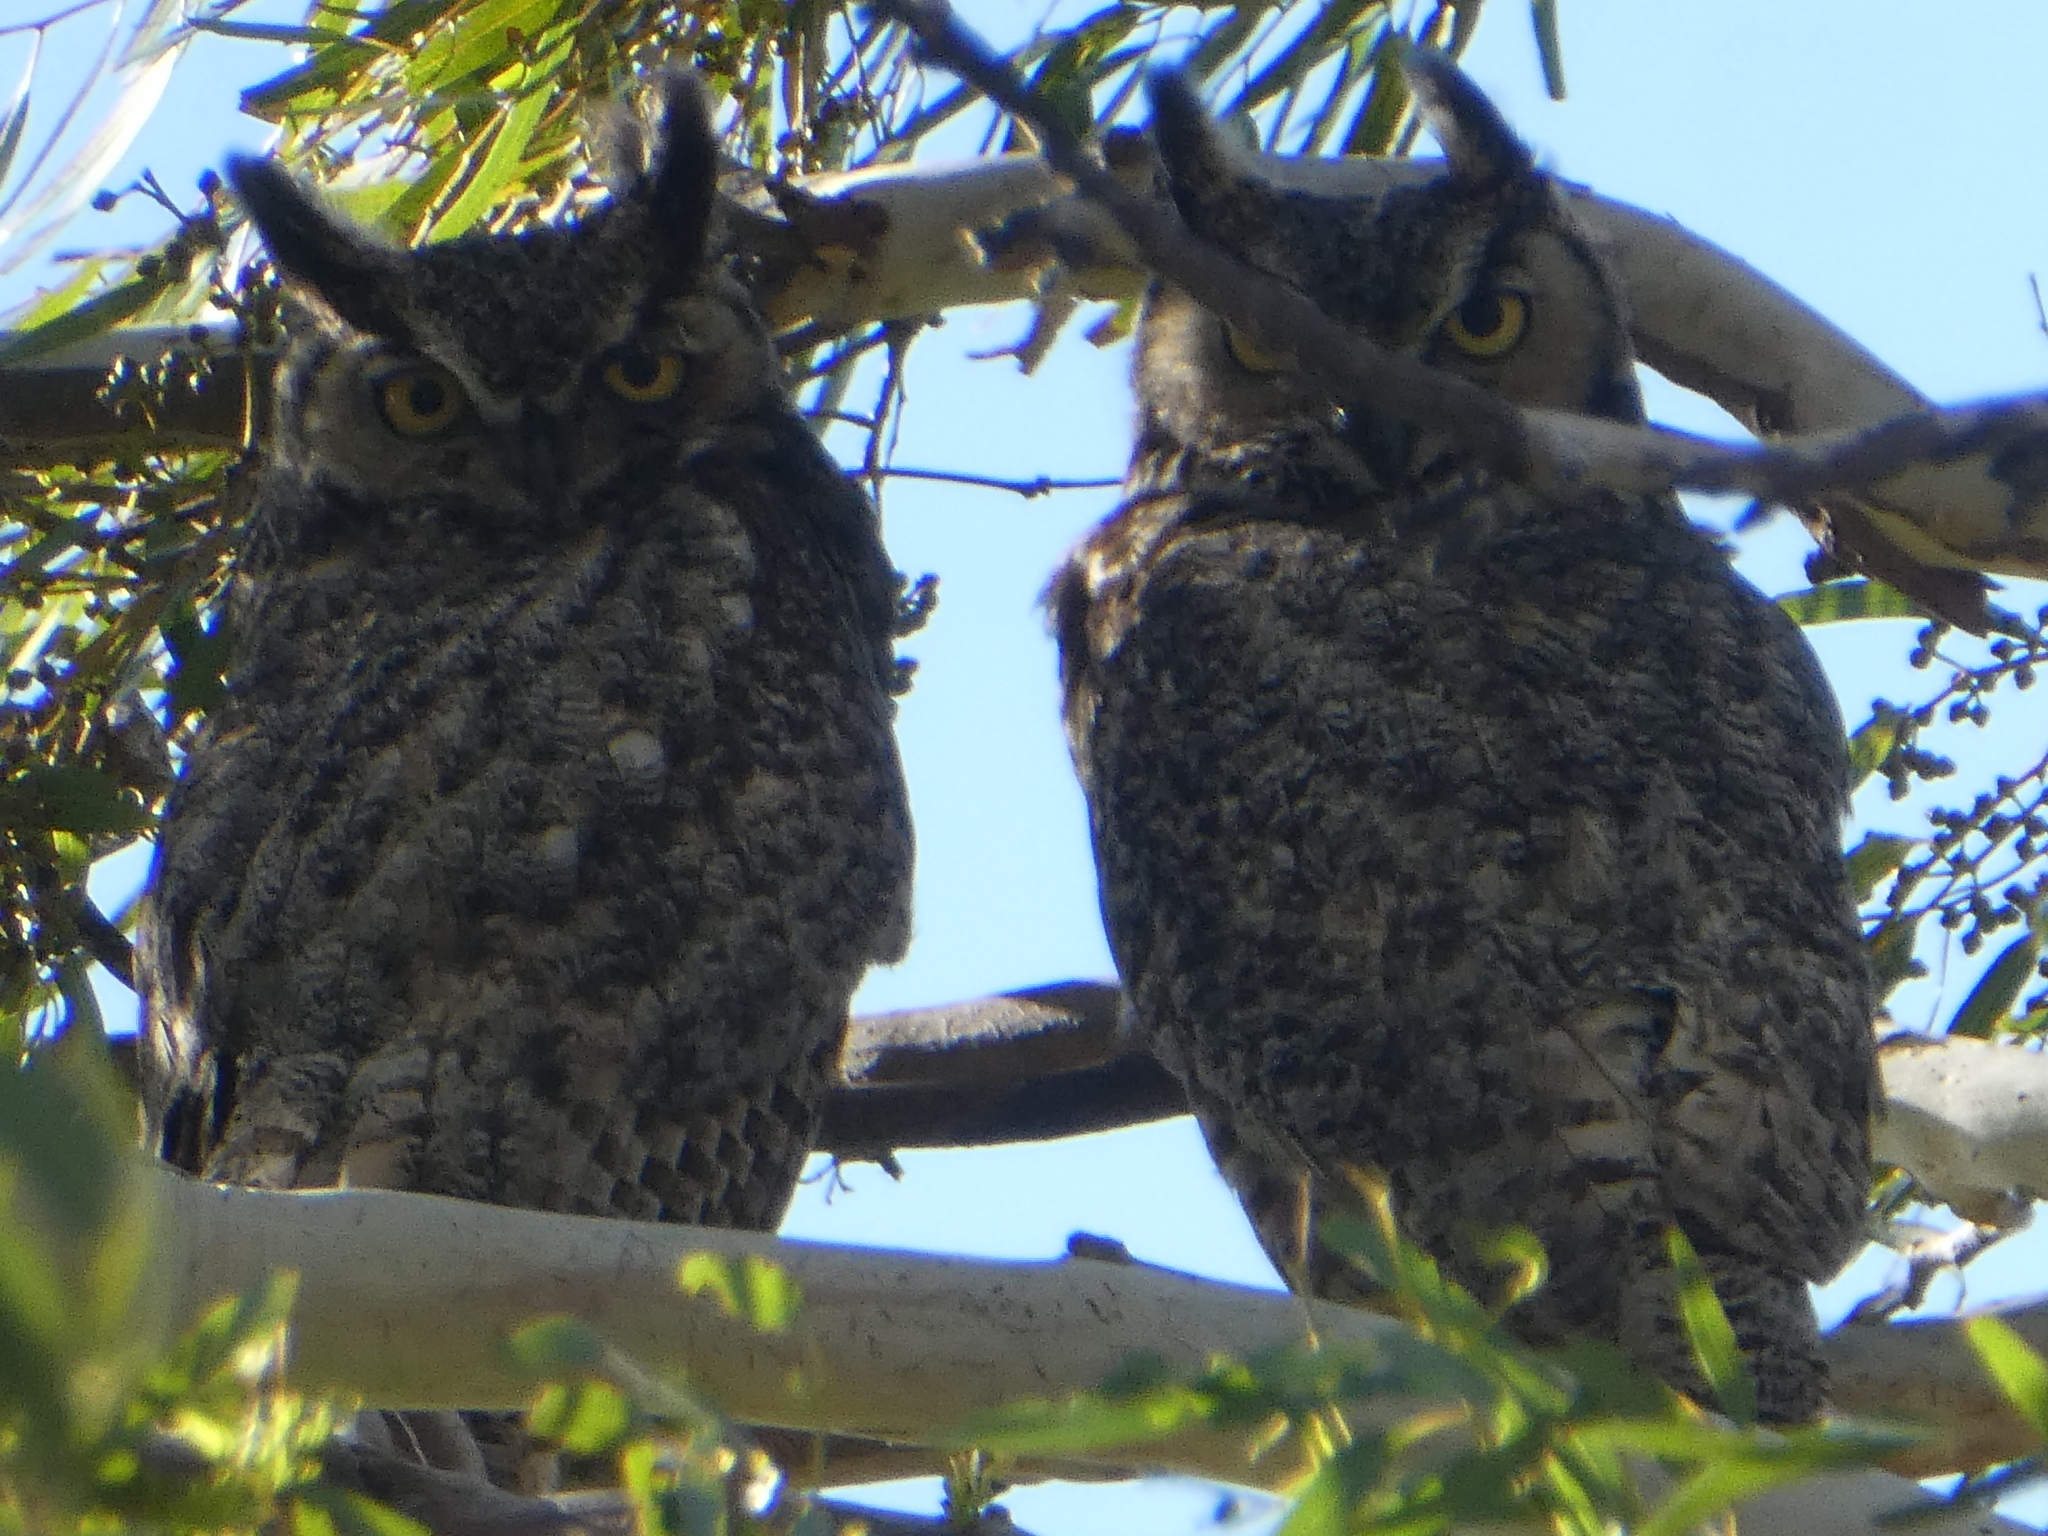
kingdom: Animalia
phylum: Chordata
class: Aves
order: Strigiformes
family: Strigidae
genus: Bubo
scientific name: Bubo virginianus
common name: Great horned owl
